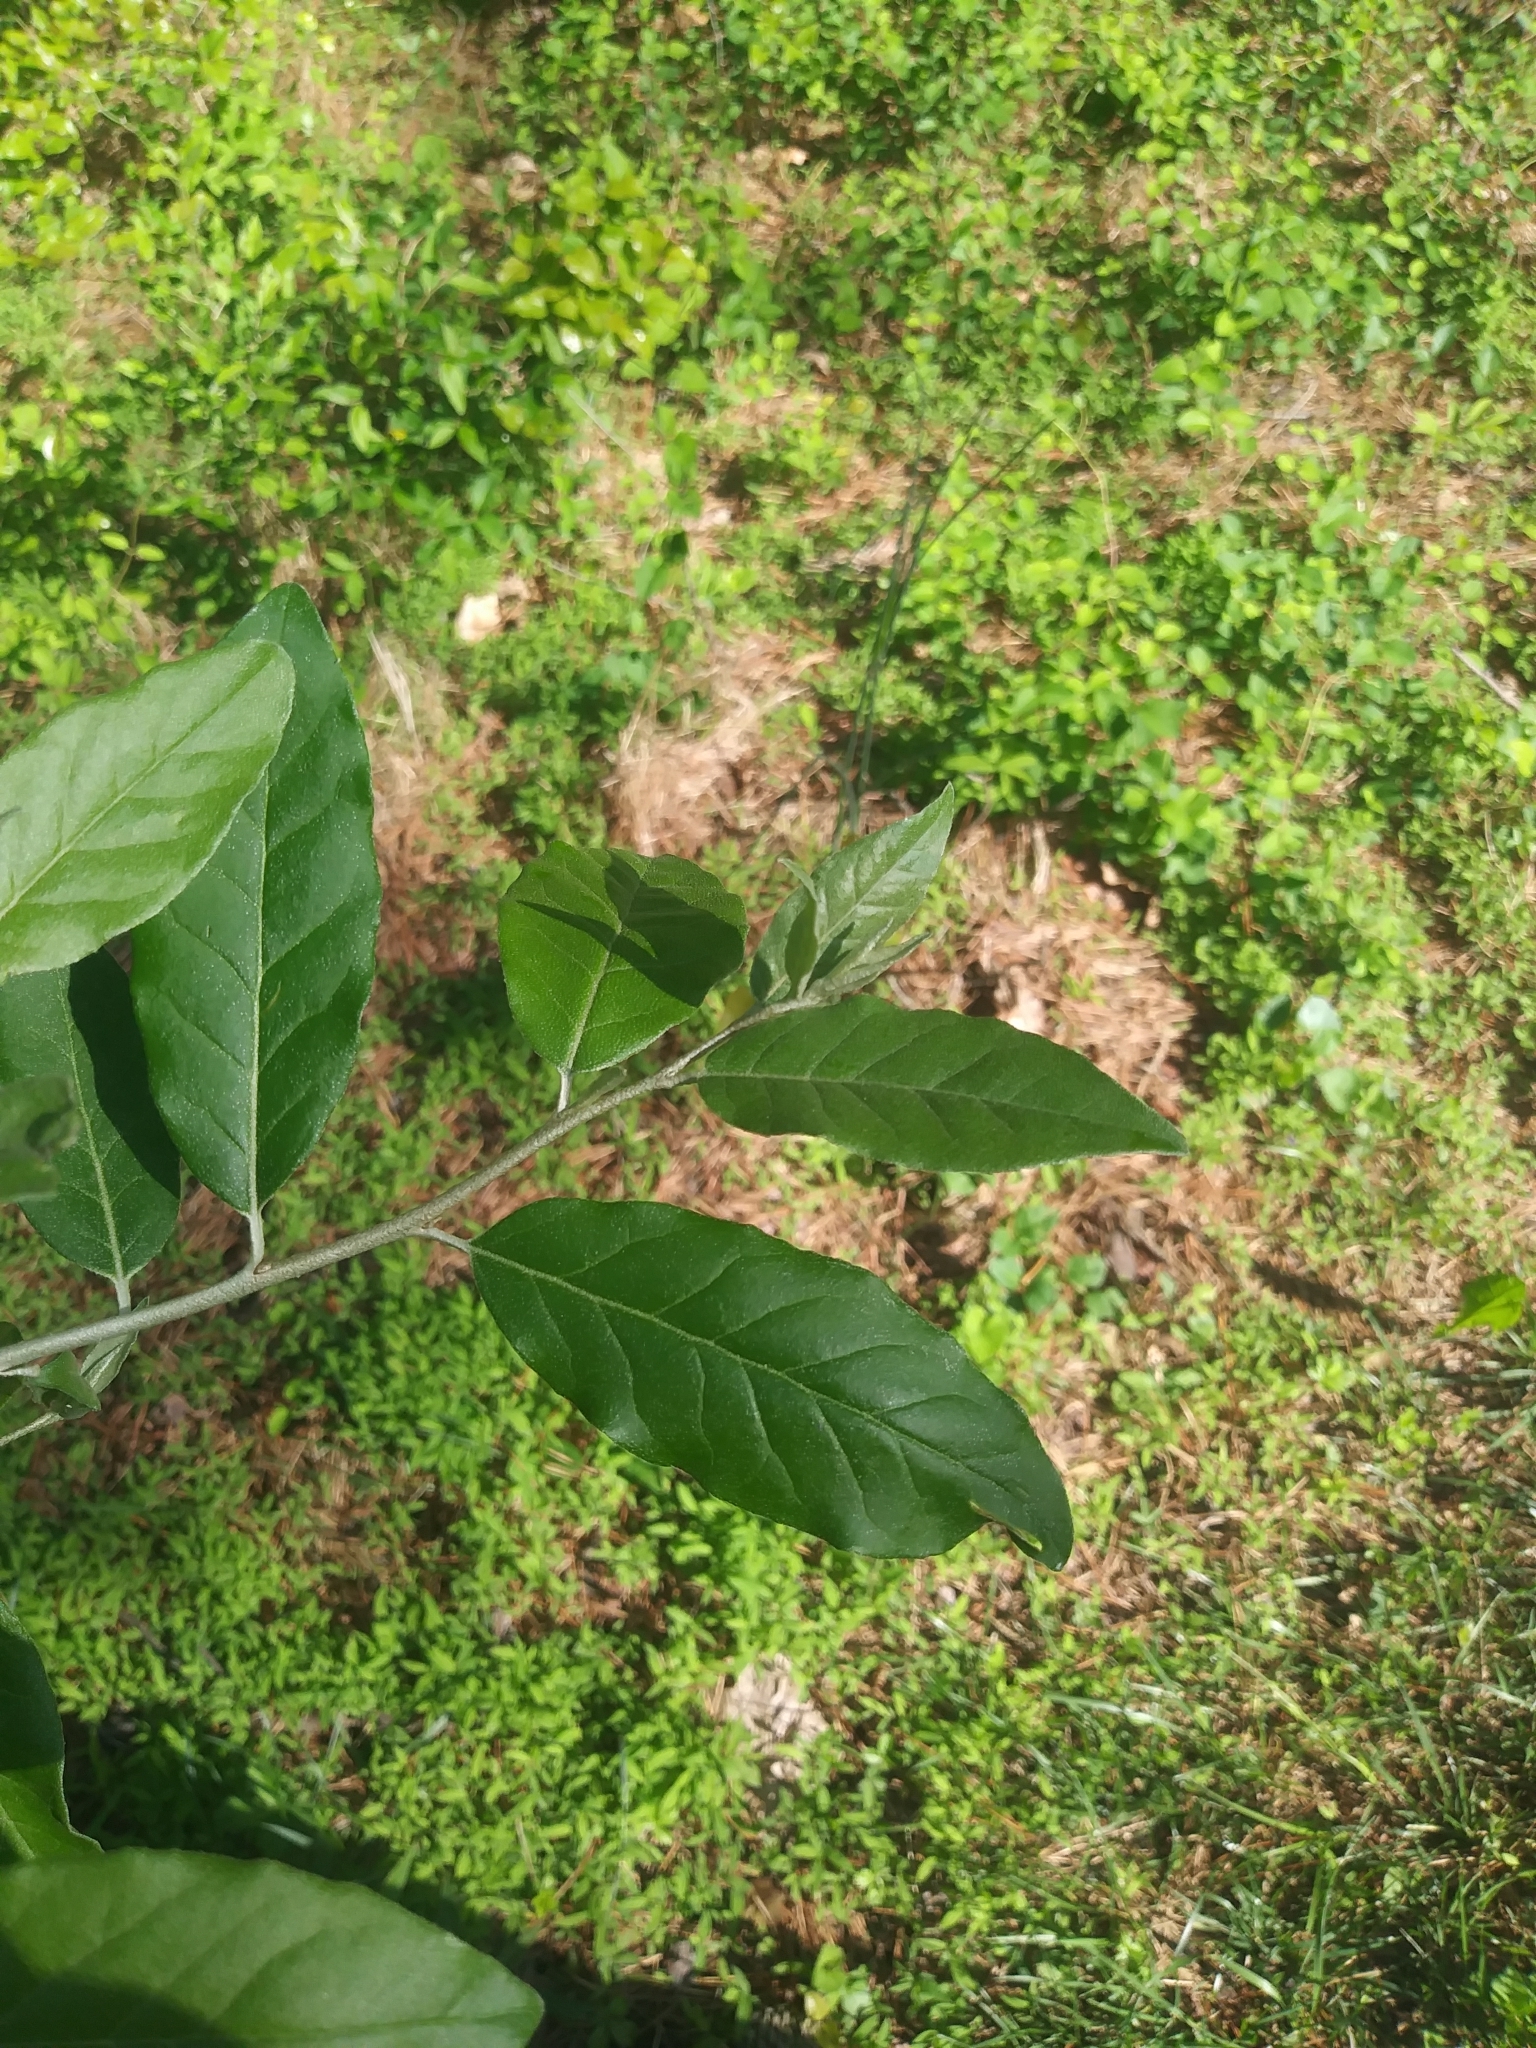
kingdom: Plantae
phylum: Tracheophyta
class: Magnoliopsida
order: Rosales
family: Elaeagnaceae
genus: Elaeagnus
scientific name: Elaeagnus umbellata
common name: Autumn olive
